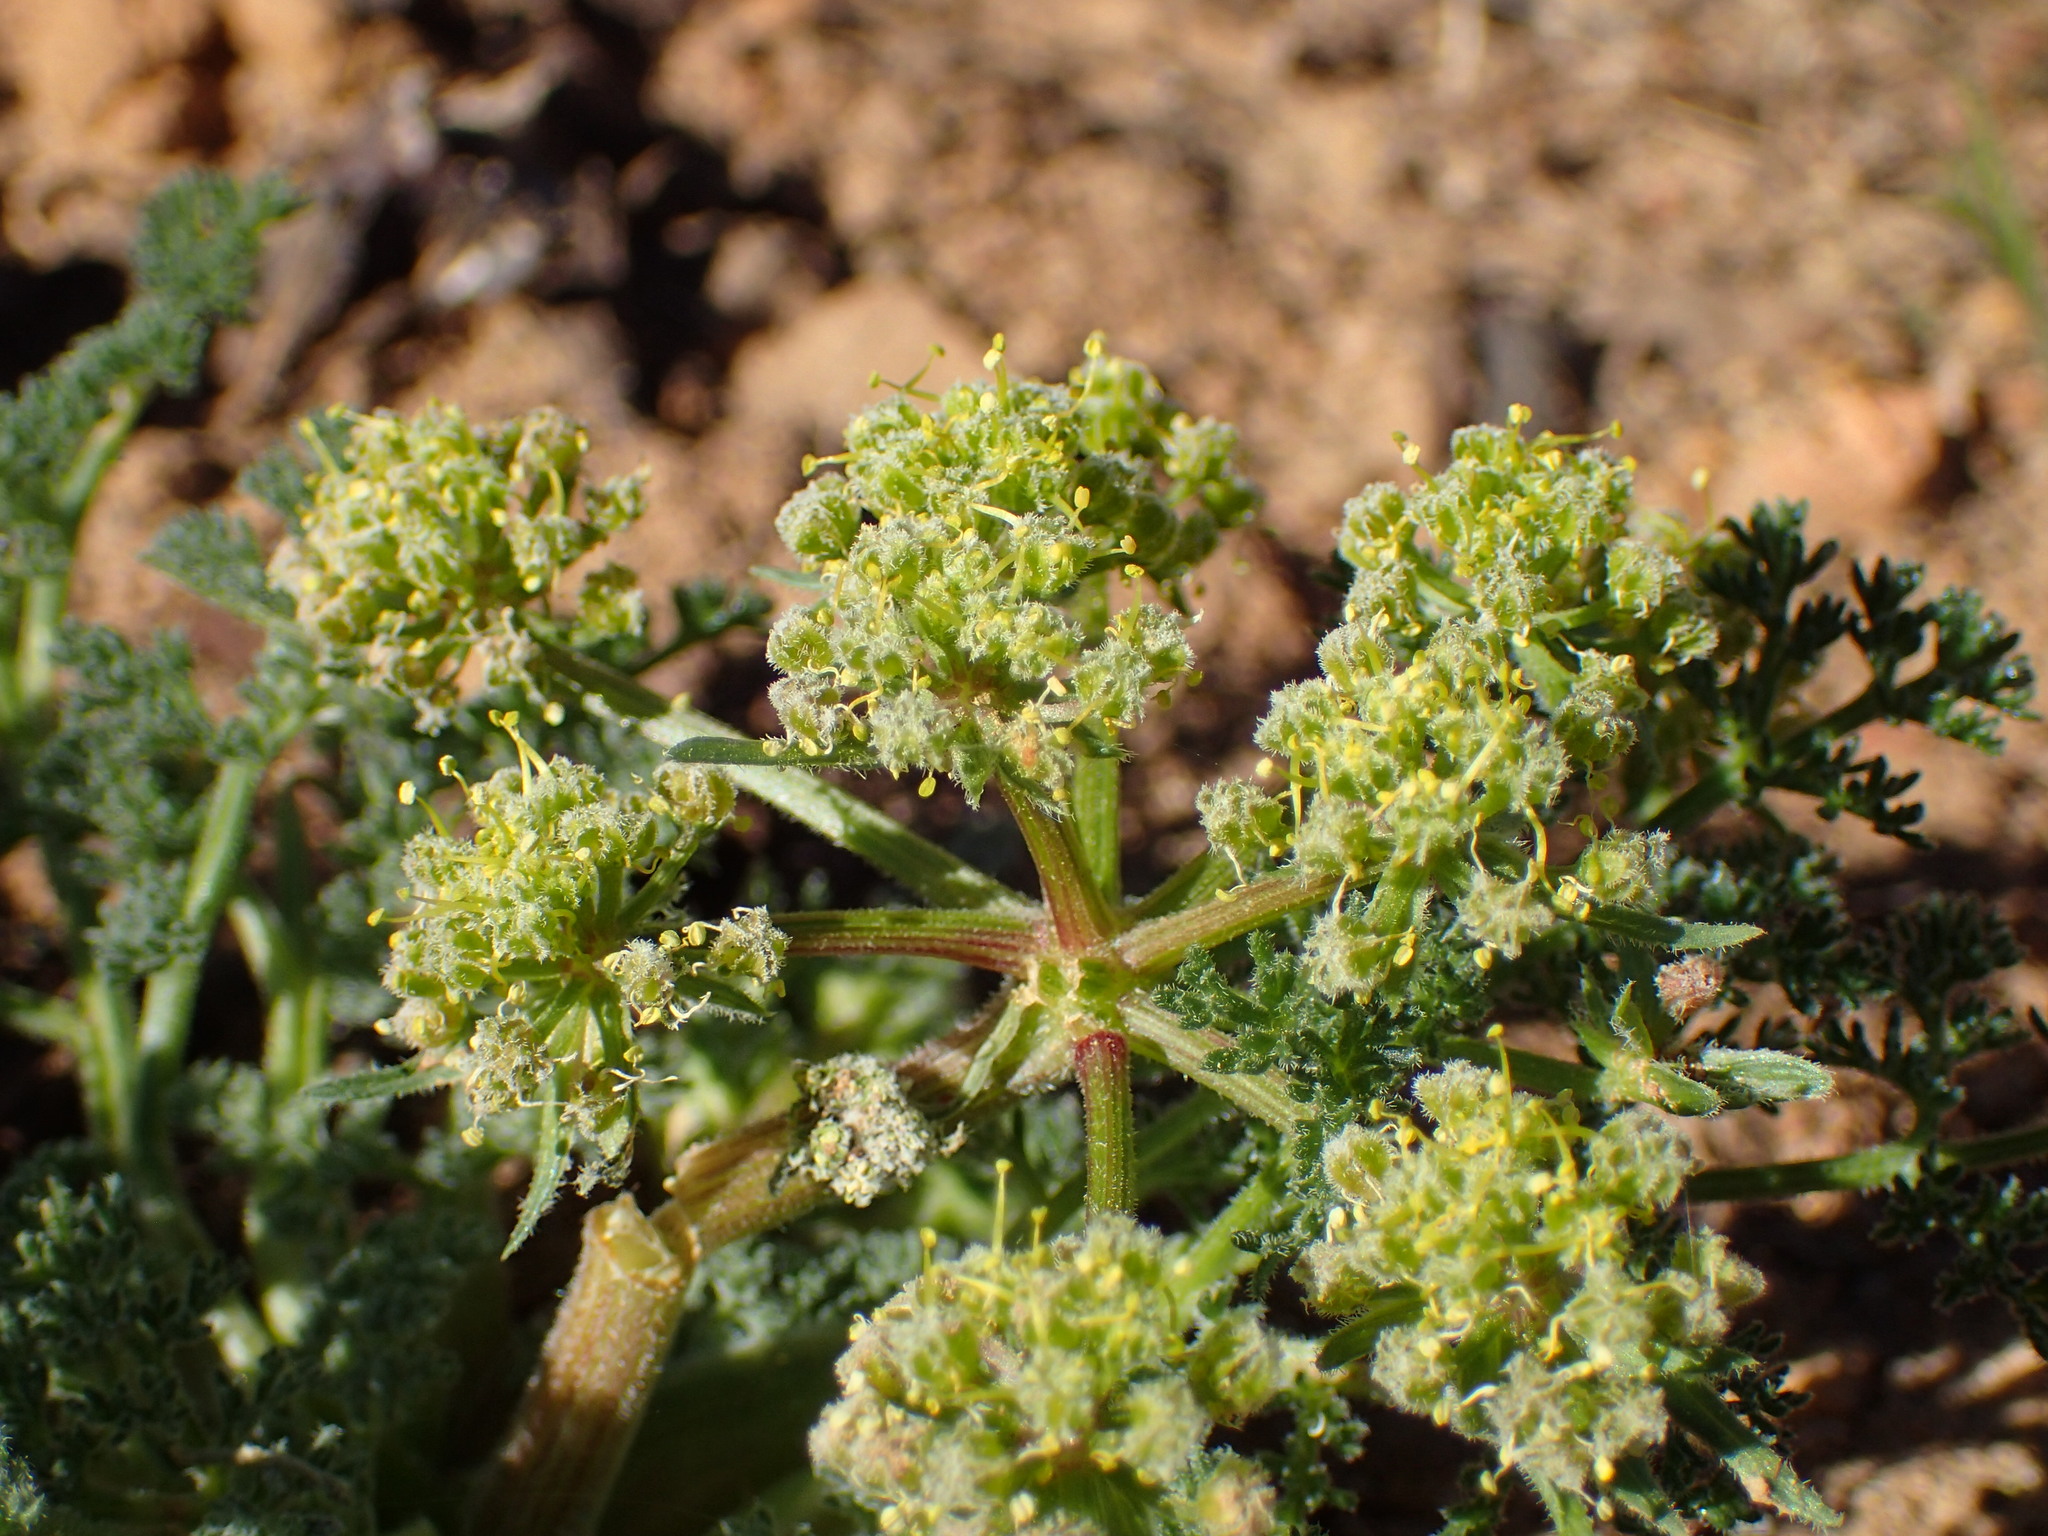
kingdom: Plantae
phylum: Tracheophyta
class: Magnoliopsida
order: Apiales
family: Apiaceae
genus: Lomatium
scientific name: Lomatium dasycarpum
